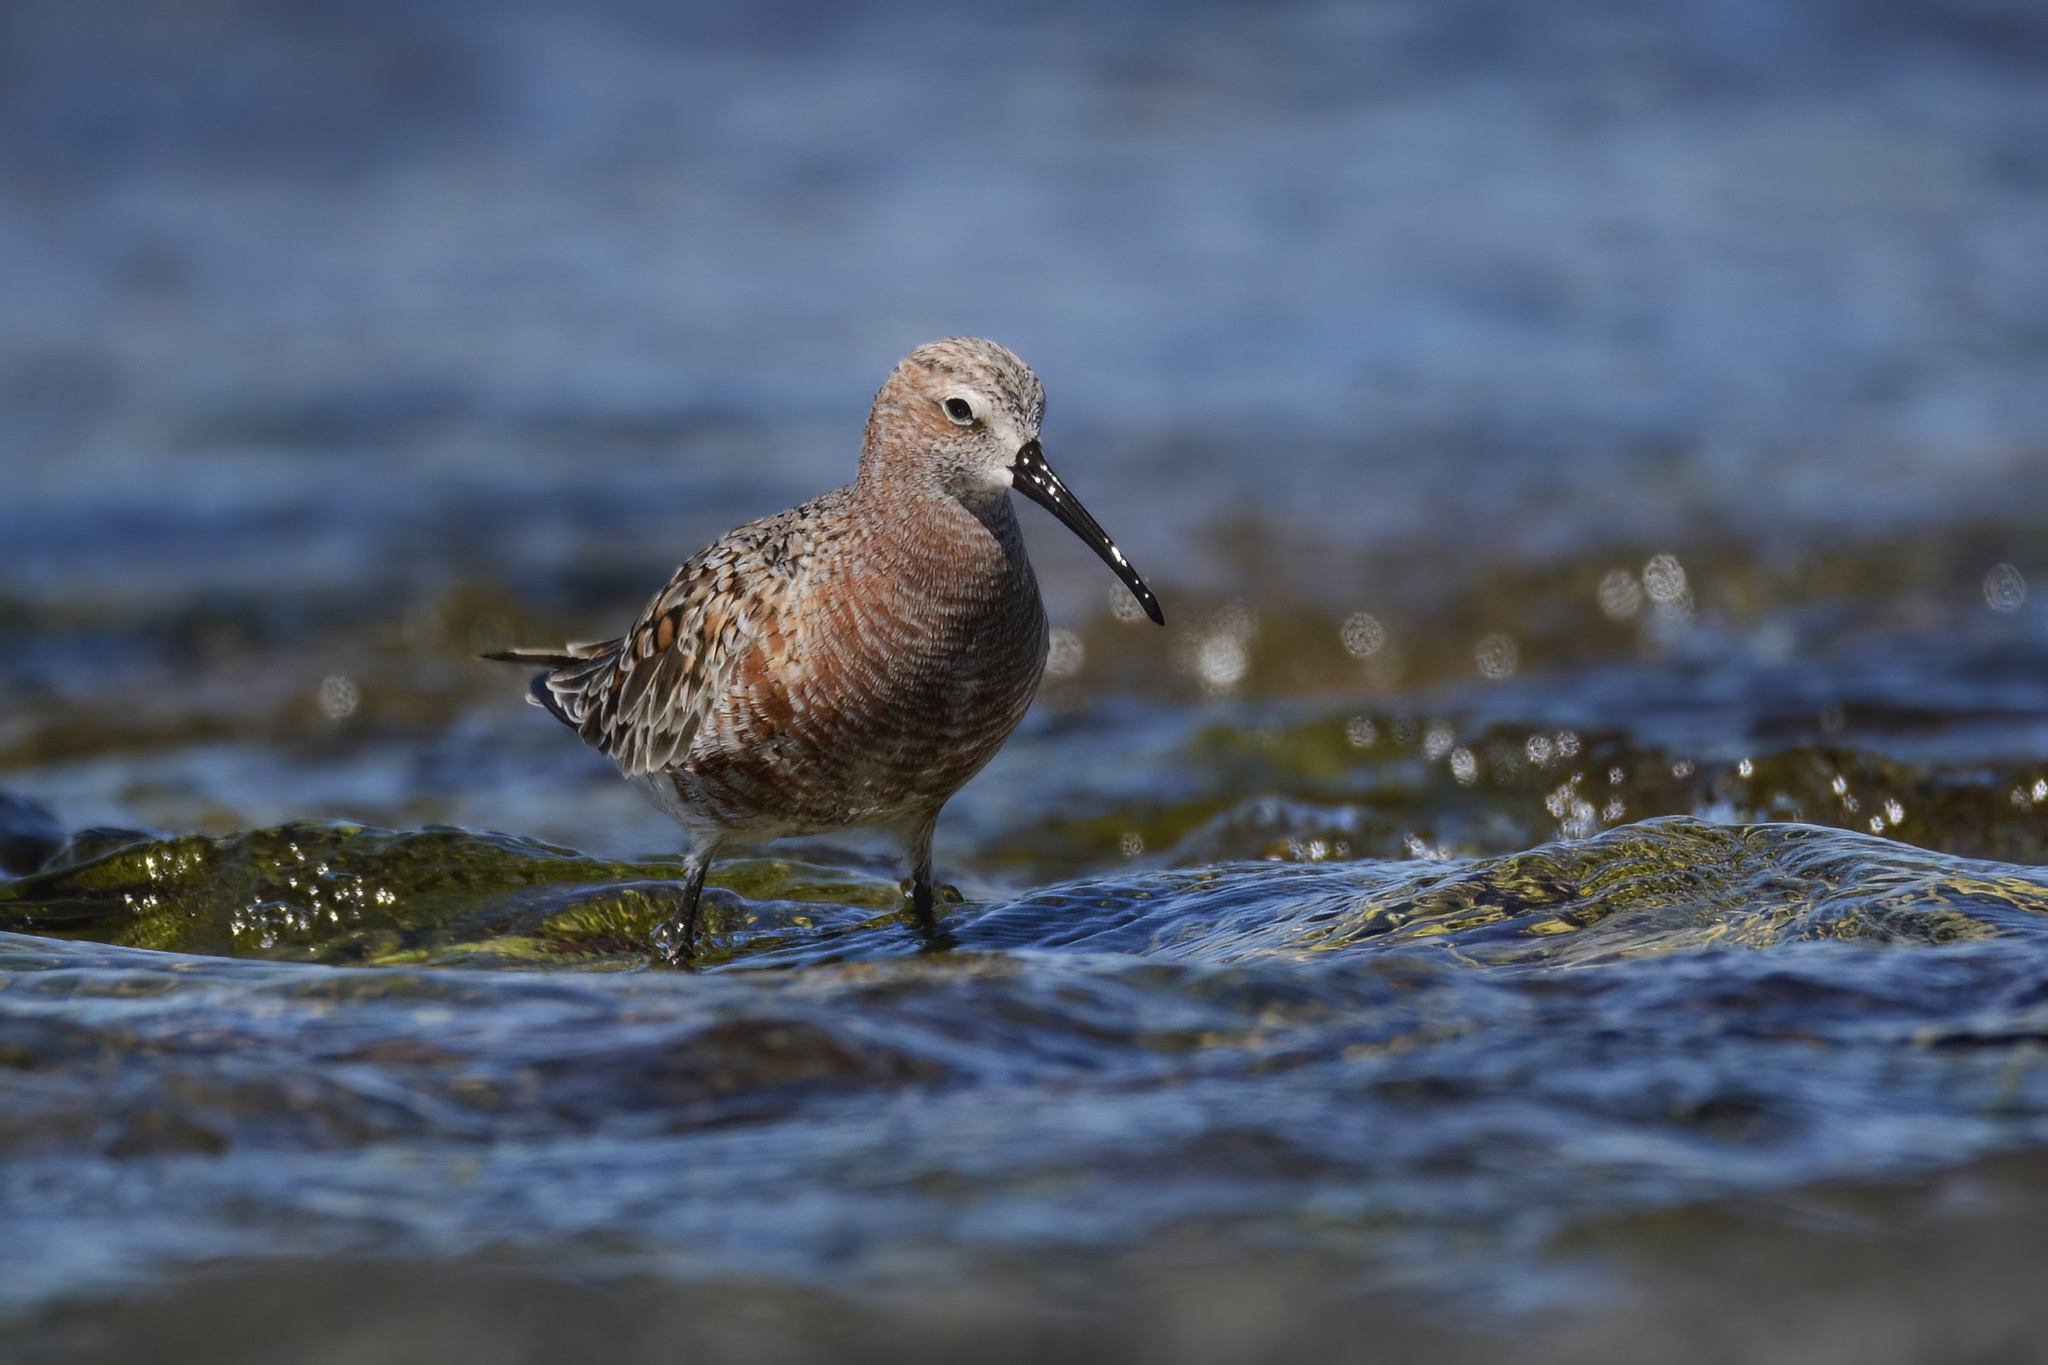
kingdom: Animalia
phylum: Chordata
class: Aves
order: Charadriiformes
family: Scolopacidae
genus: Calidris
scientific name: Calidris ferruginea
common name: Curlew sandpiper
